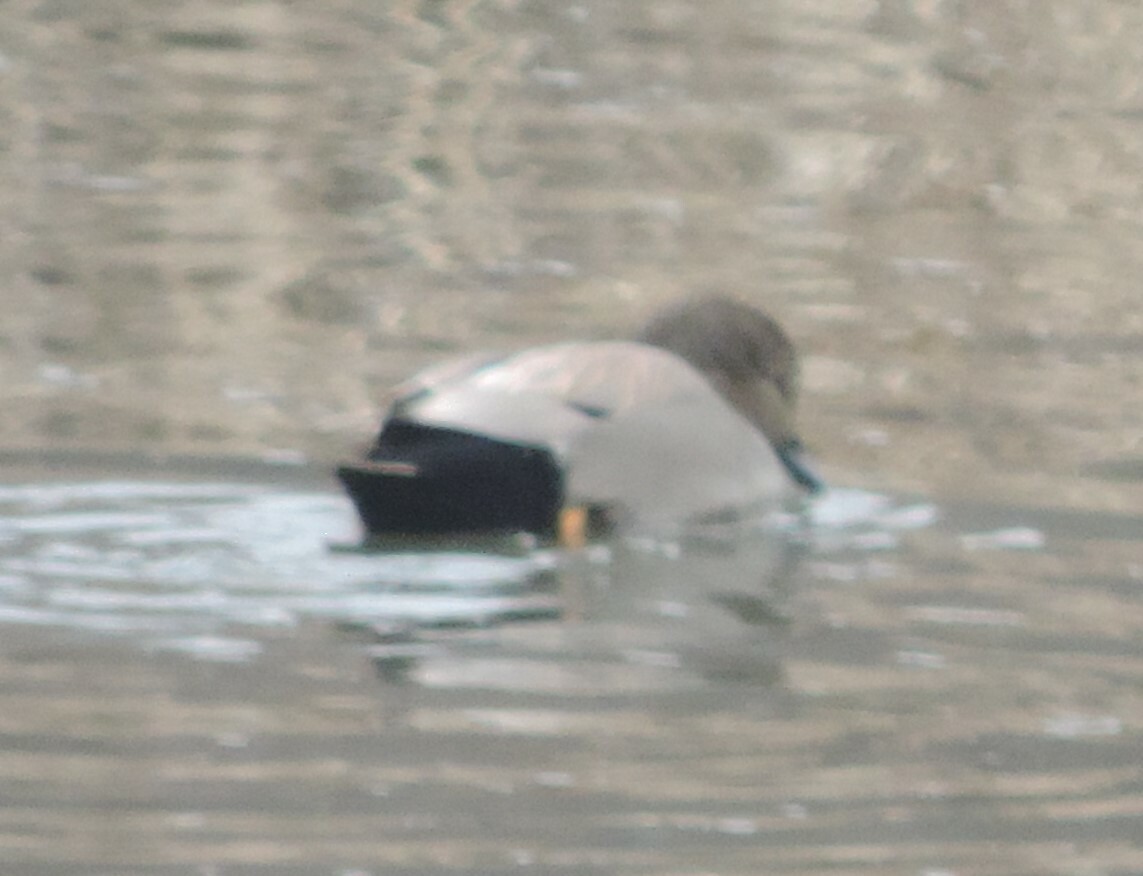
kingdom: Animalia
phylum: Chordata
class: Aves
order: Anseriformes
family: Anatidae
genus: Mareca
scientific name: Mareca strepera
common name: Gadwall
